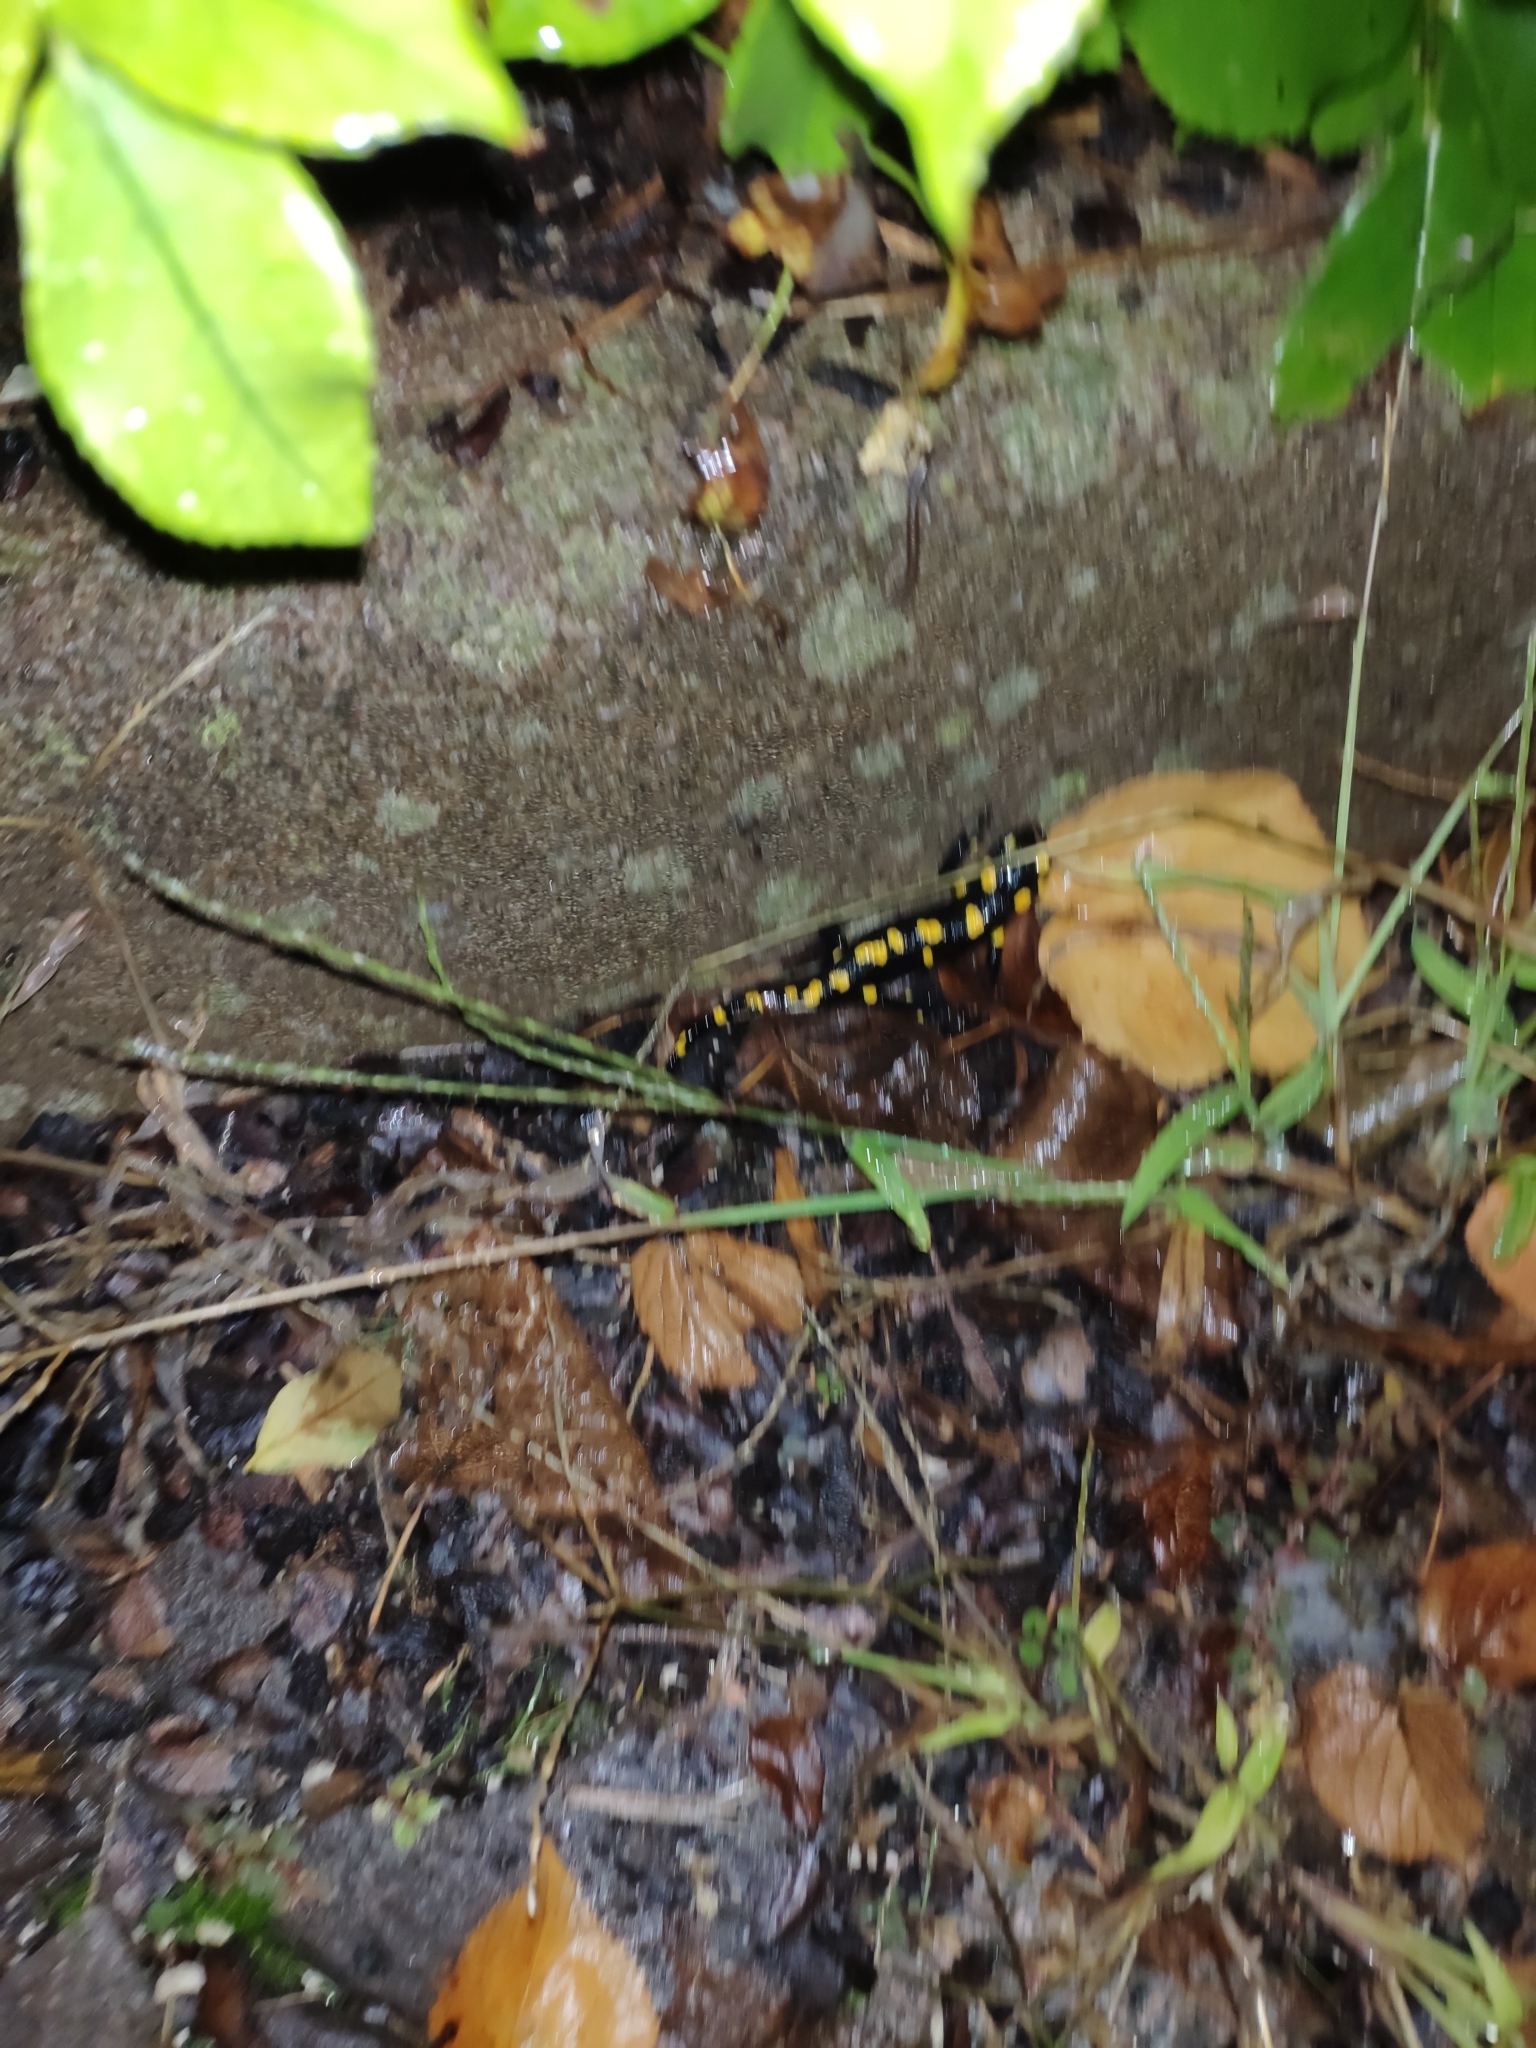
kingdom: Animalia
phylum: Chordata
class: Amphibia
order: Caudata
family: Salamandridae
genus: Salamandra
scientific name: Salamandra salamandra
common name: Fire salamander
